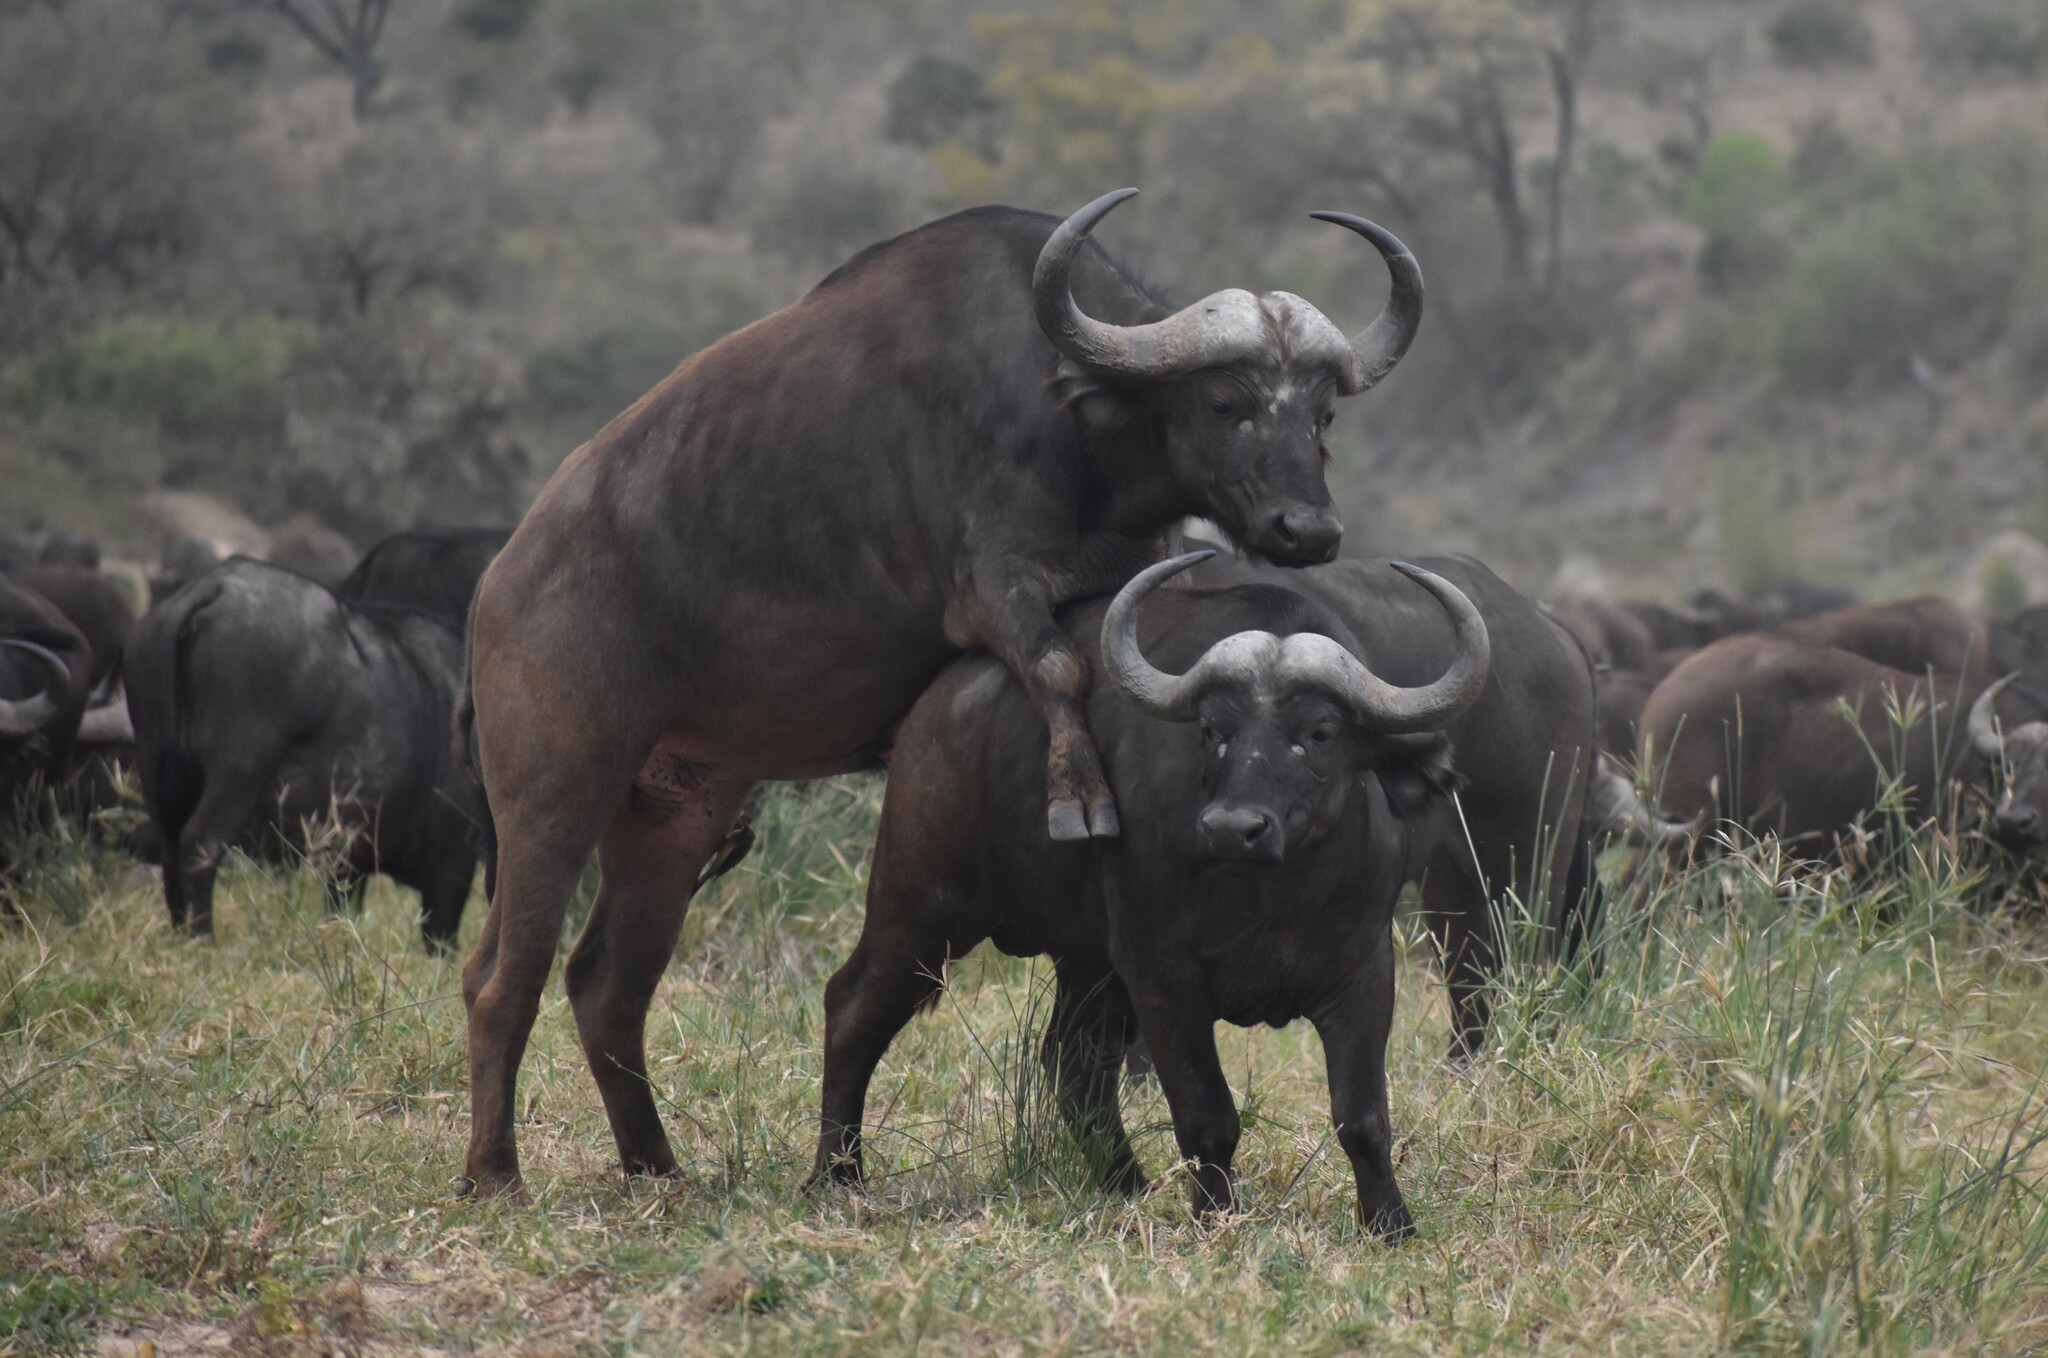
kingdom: Animalia
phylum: Chordata
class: Mammalia
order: Artiodactyla
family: Bovidae
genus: Syncerus
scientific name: Syncerus caffer
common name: African buffalo
